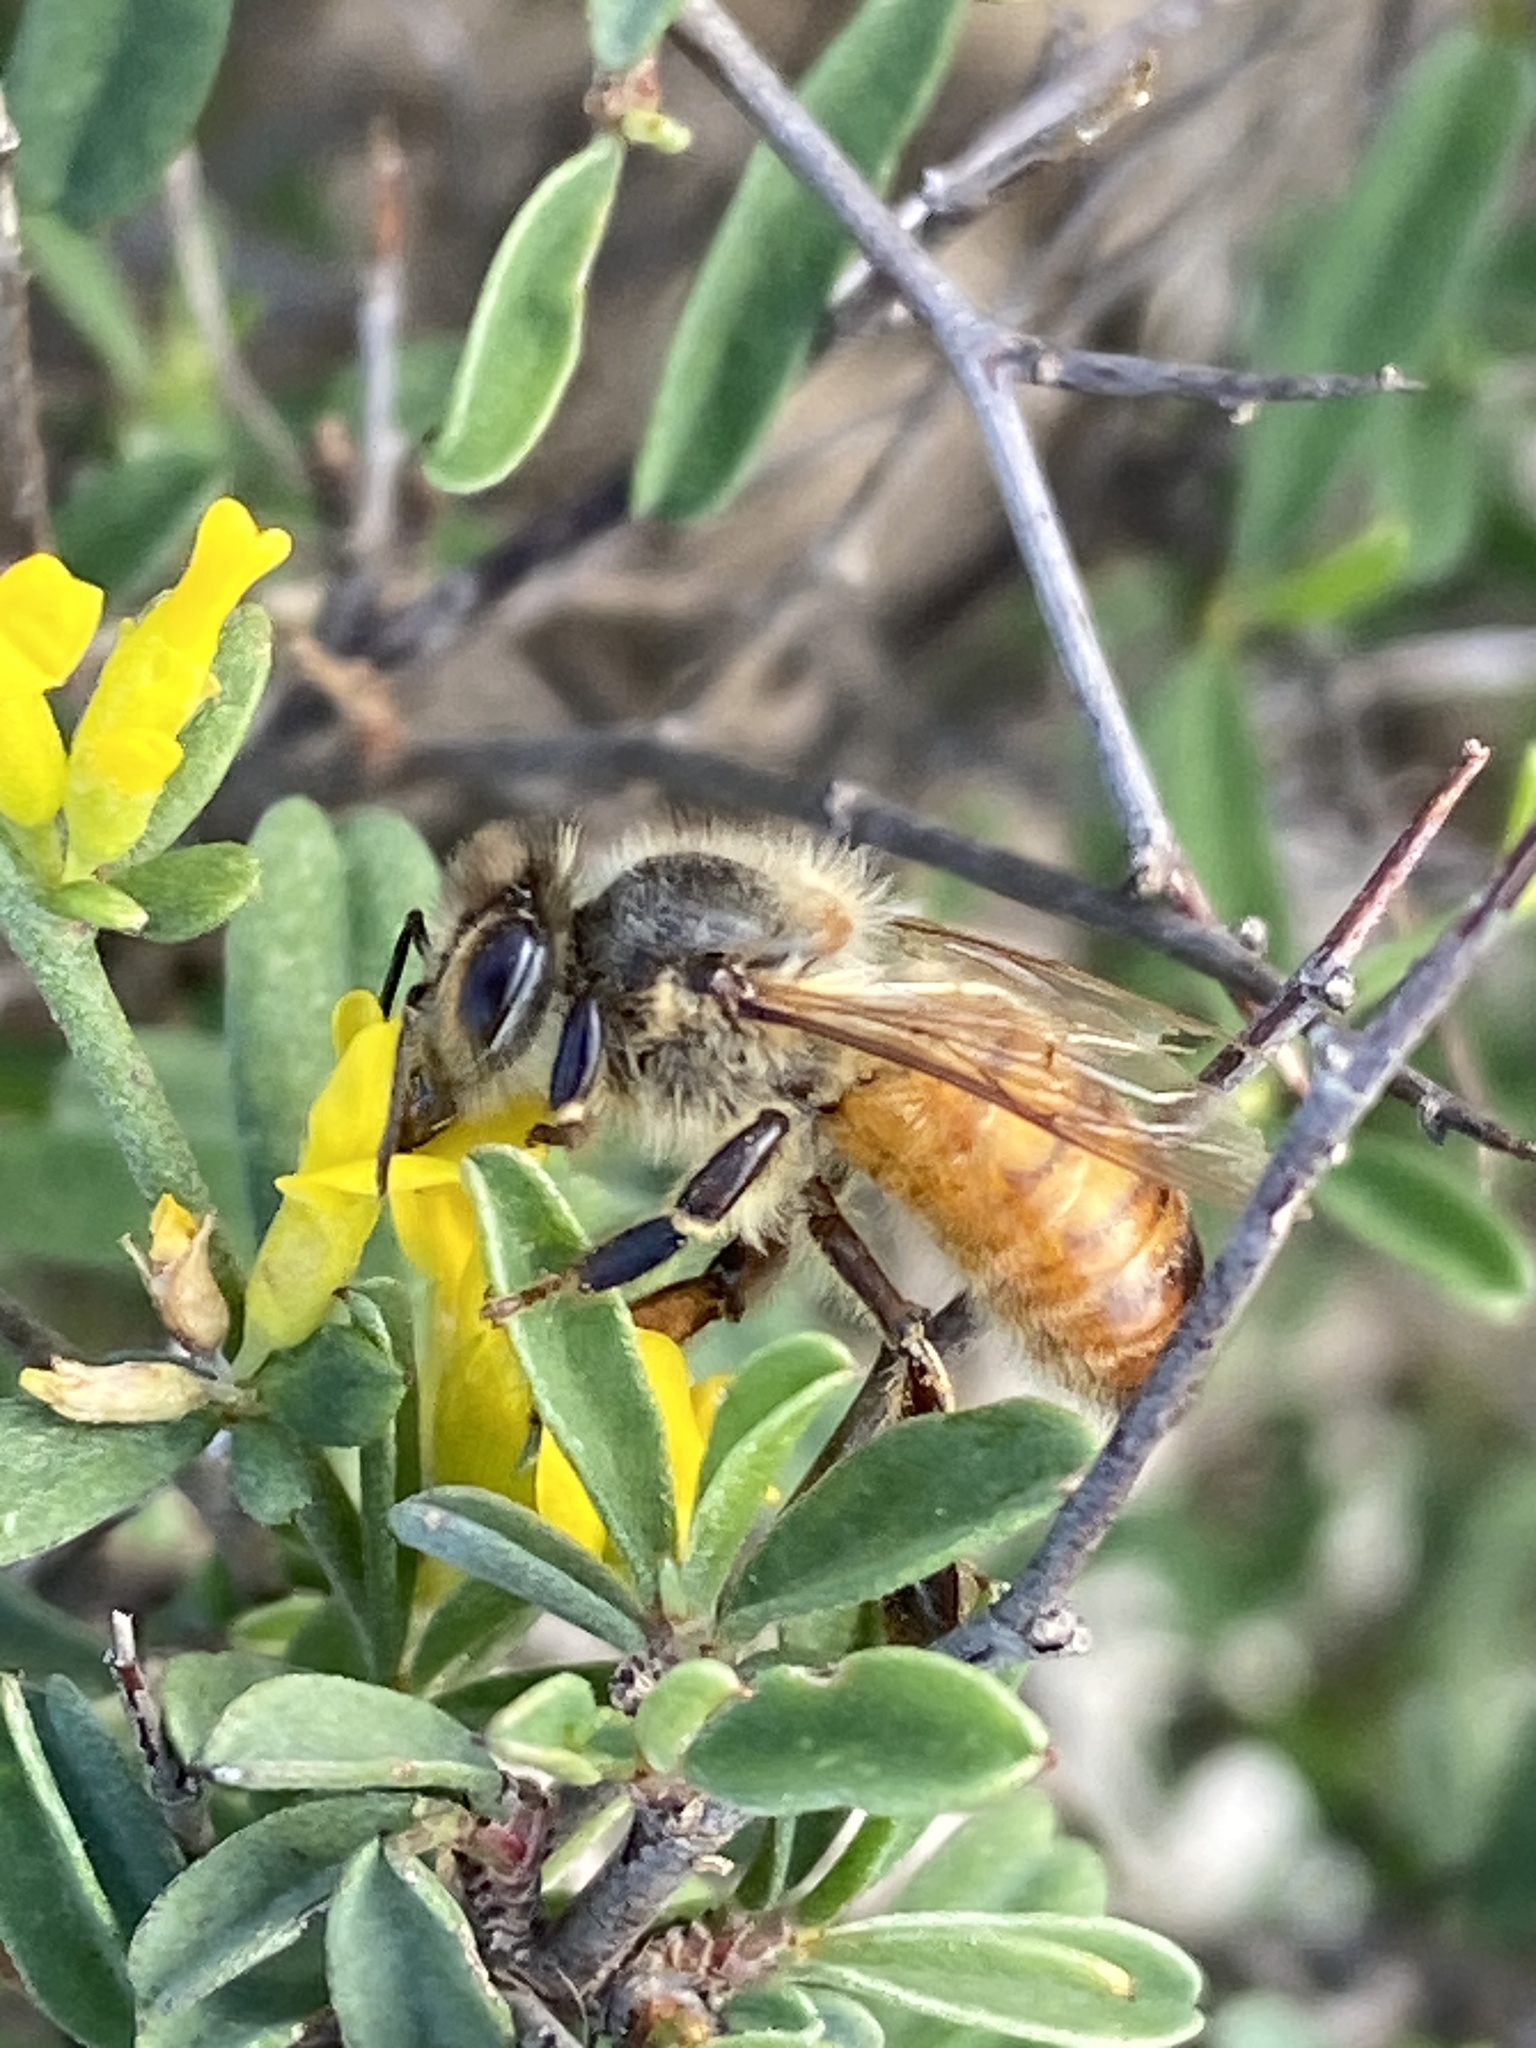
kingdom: Animalia
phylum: Arthropoda
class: Insecta
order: Hymenoptera
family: Apidae
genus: Apis
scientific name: Apis mellifera
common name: Honey bee
